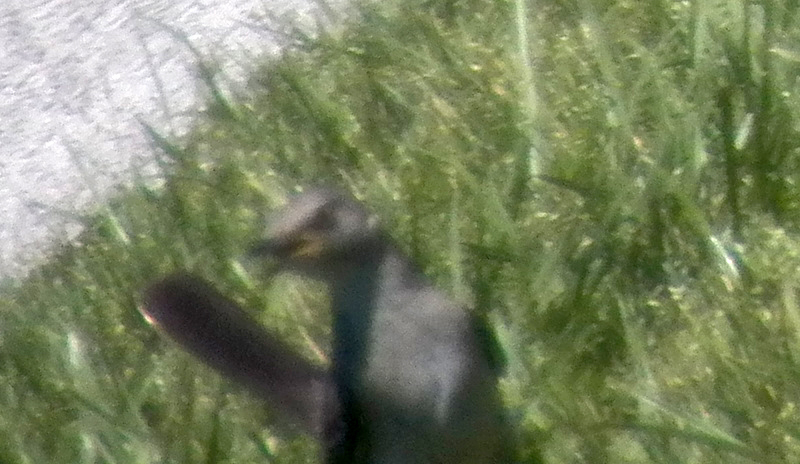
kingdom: Animalia
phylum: Chordata
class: Aves
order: Passeriformes
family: Mimidae
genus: Mimus
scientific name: Mimus polyglottos
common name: Northern mockingbird
